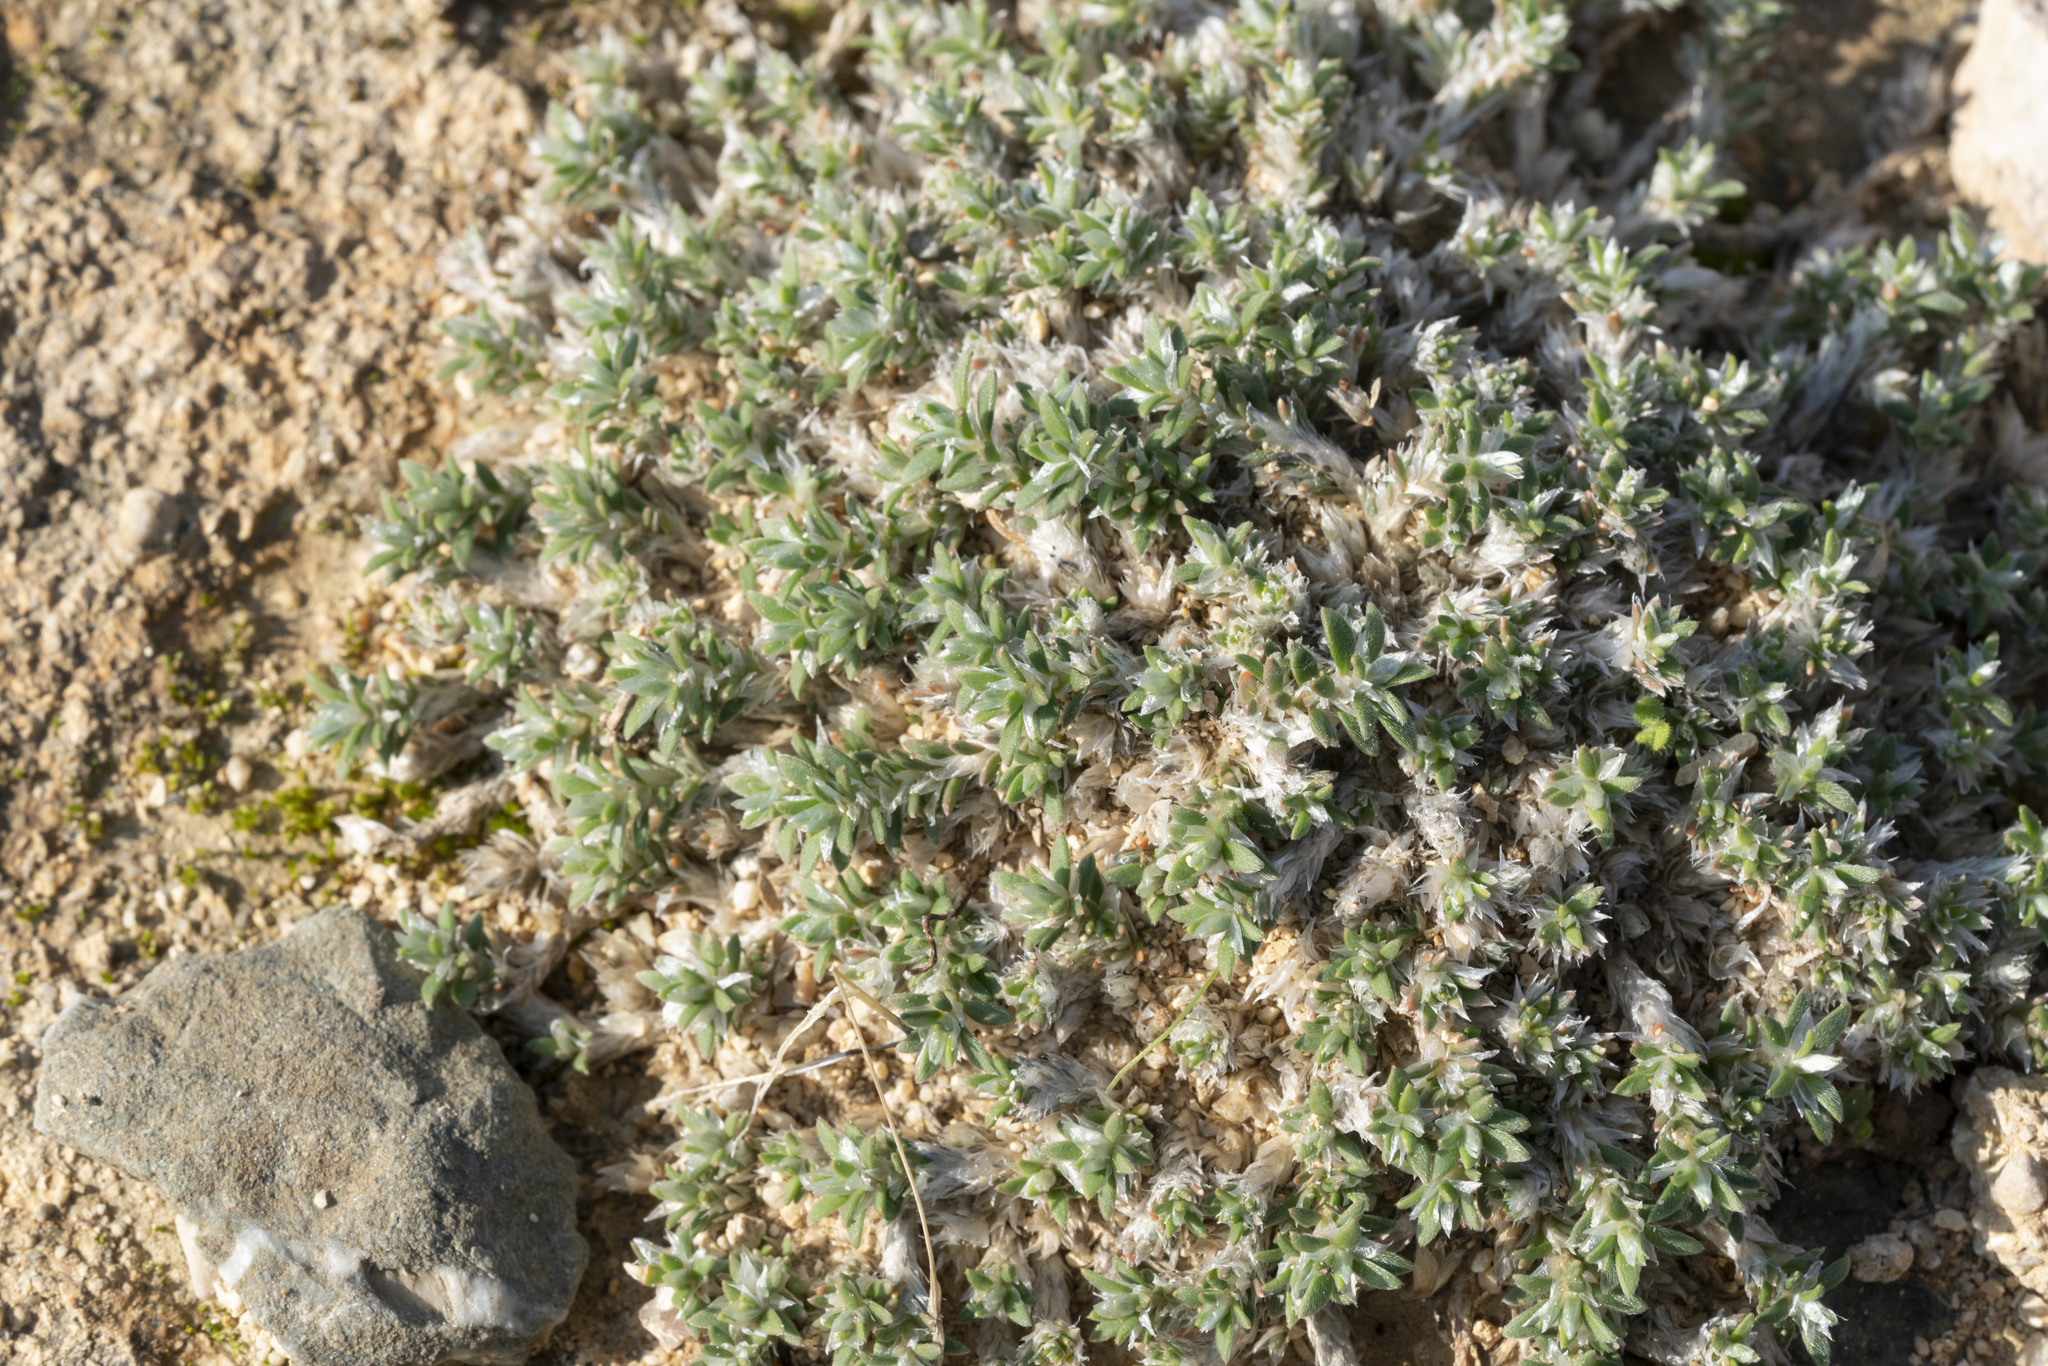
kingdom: Plantae
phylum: Tracheophyta
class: Magnoliopsida
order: Caryophyllales
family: Caryophyllaceae
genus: Paronychia
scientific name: Paronychia macrosepala
